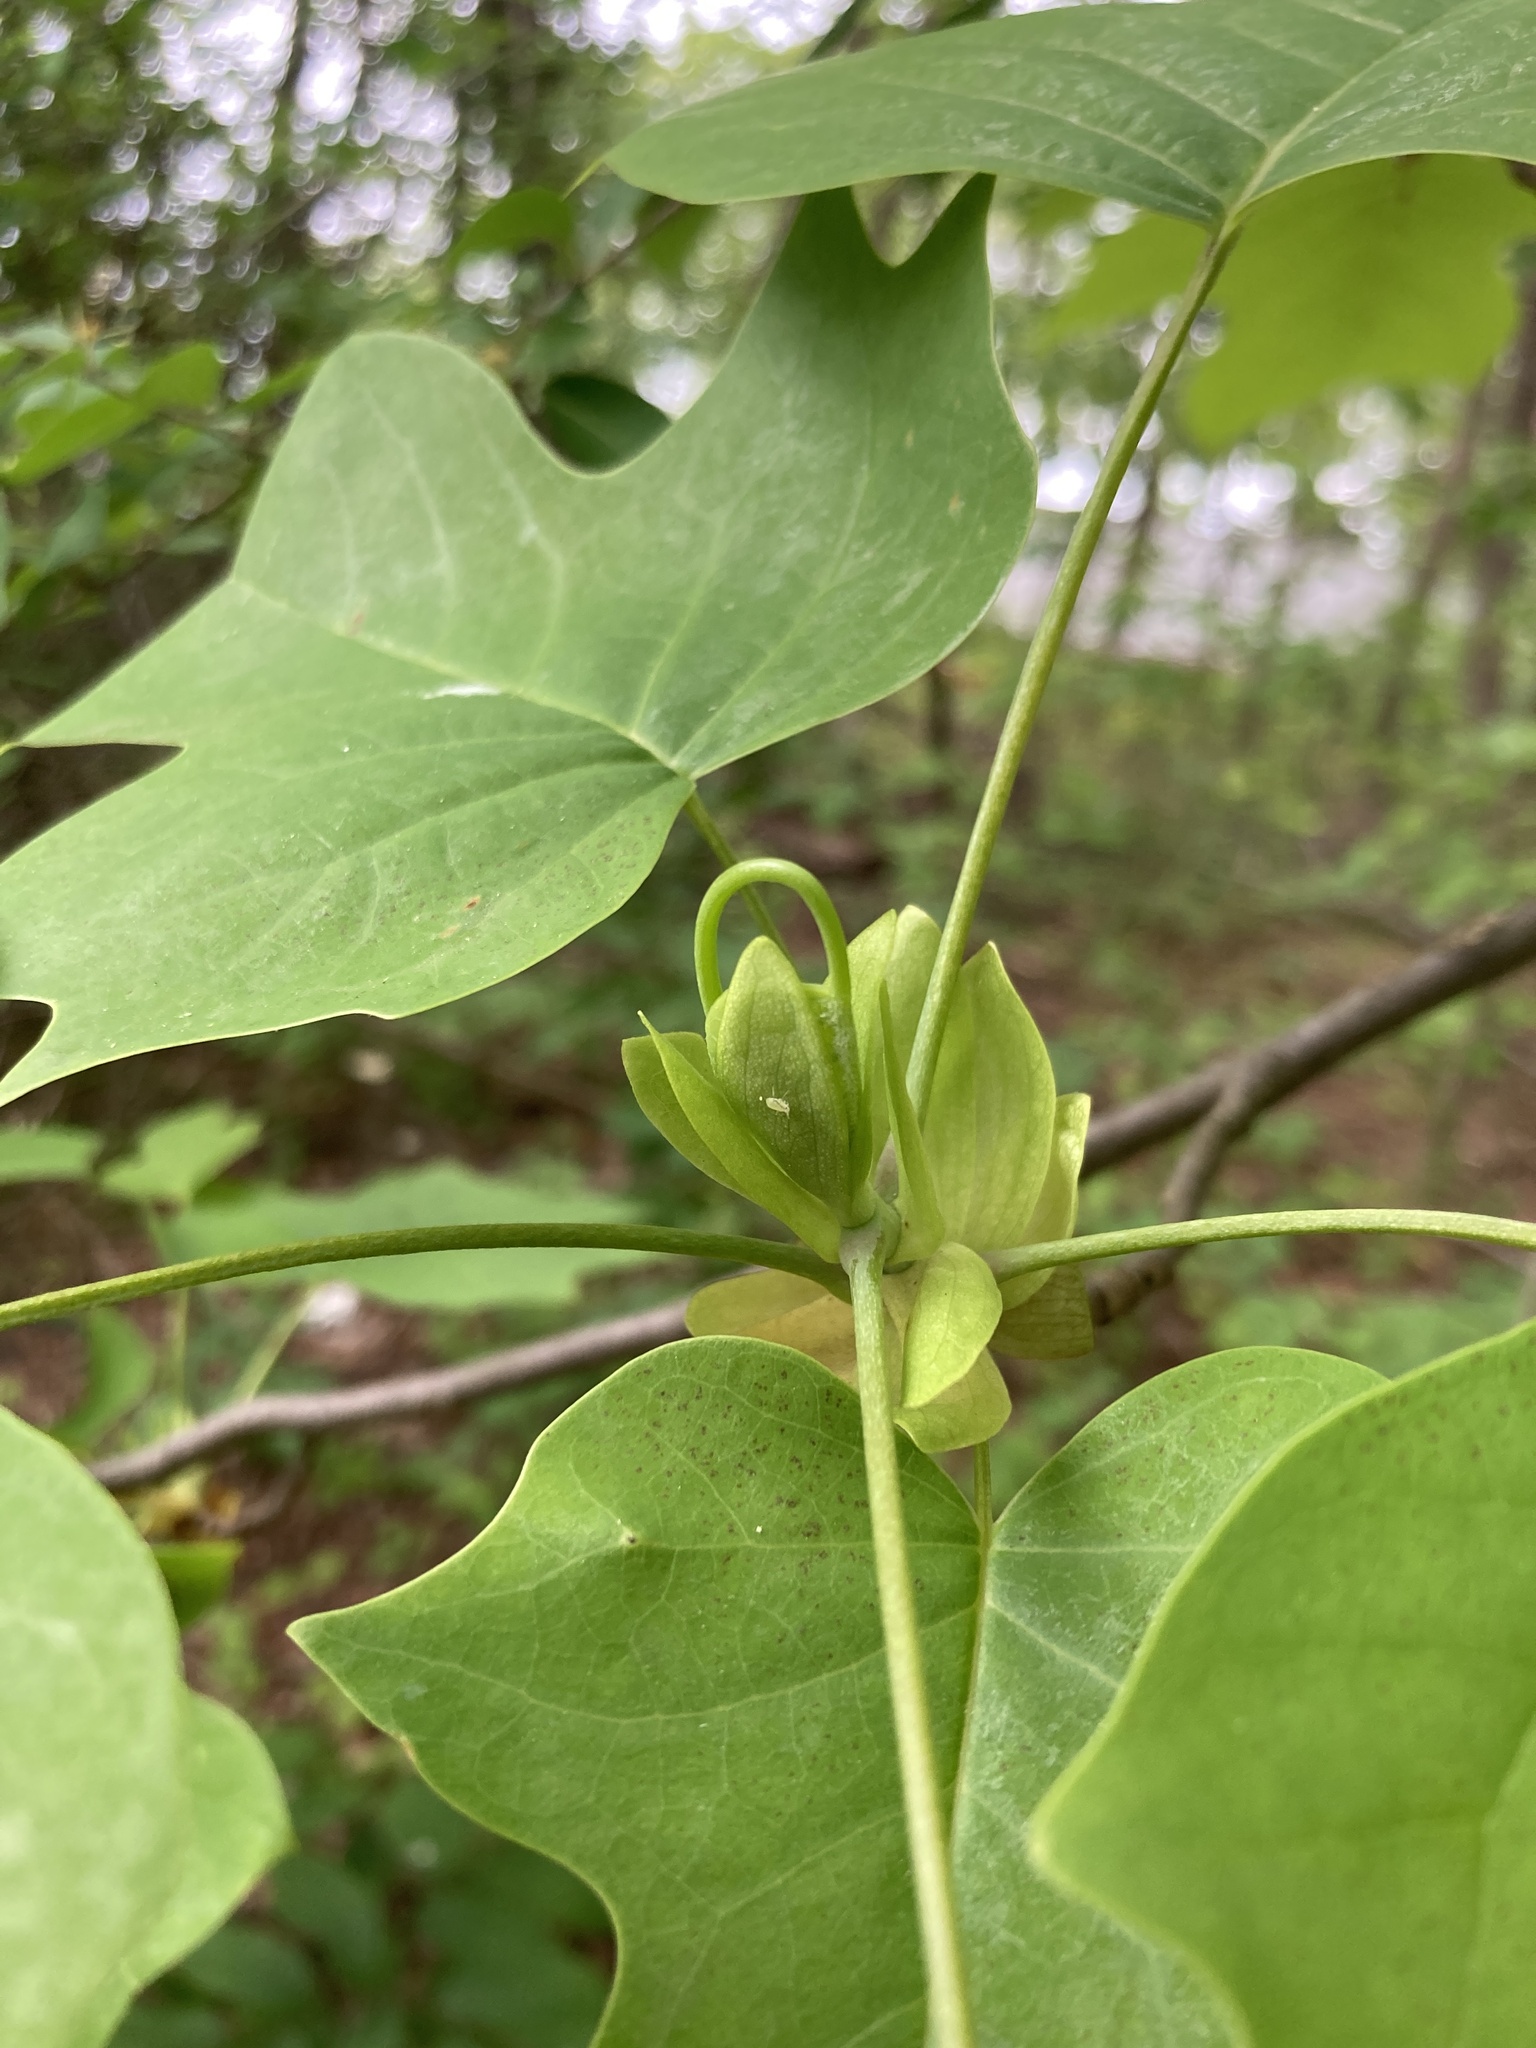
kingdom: Plantae
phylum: Tracheophyta
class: Magnoliopsida
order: Magnoliales
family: Magnoliaceae
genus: Liriodendron
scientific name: Liriodendron tulipifera
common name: Tulip tree
